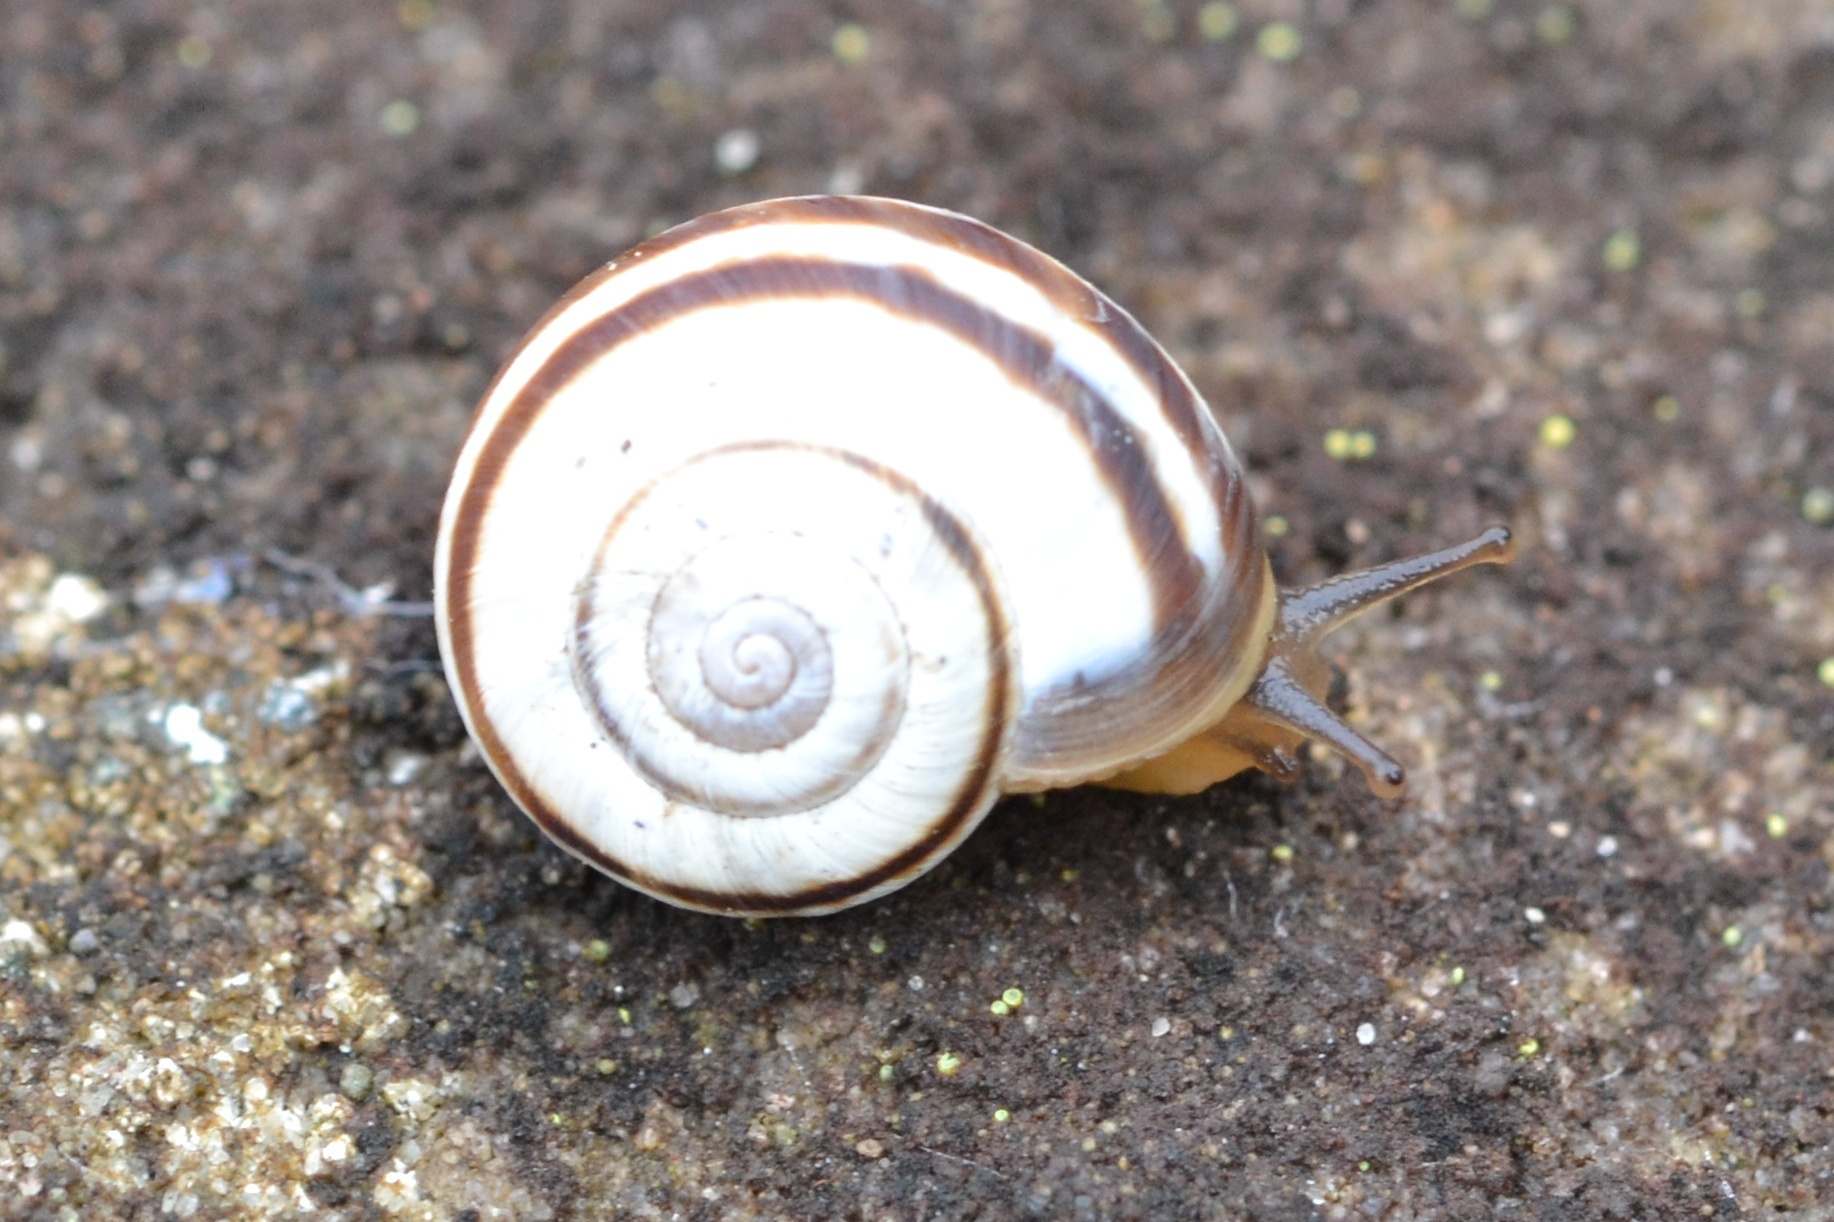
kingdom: Animalia
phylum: Mollusca
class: Gastropoda
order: Stylommatophora
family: Geomitridae
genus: Xerolenta
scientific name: Xerolenta obvia
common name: White heath snail
